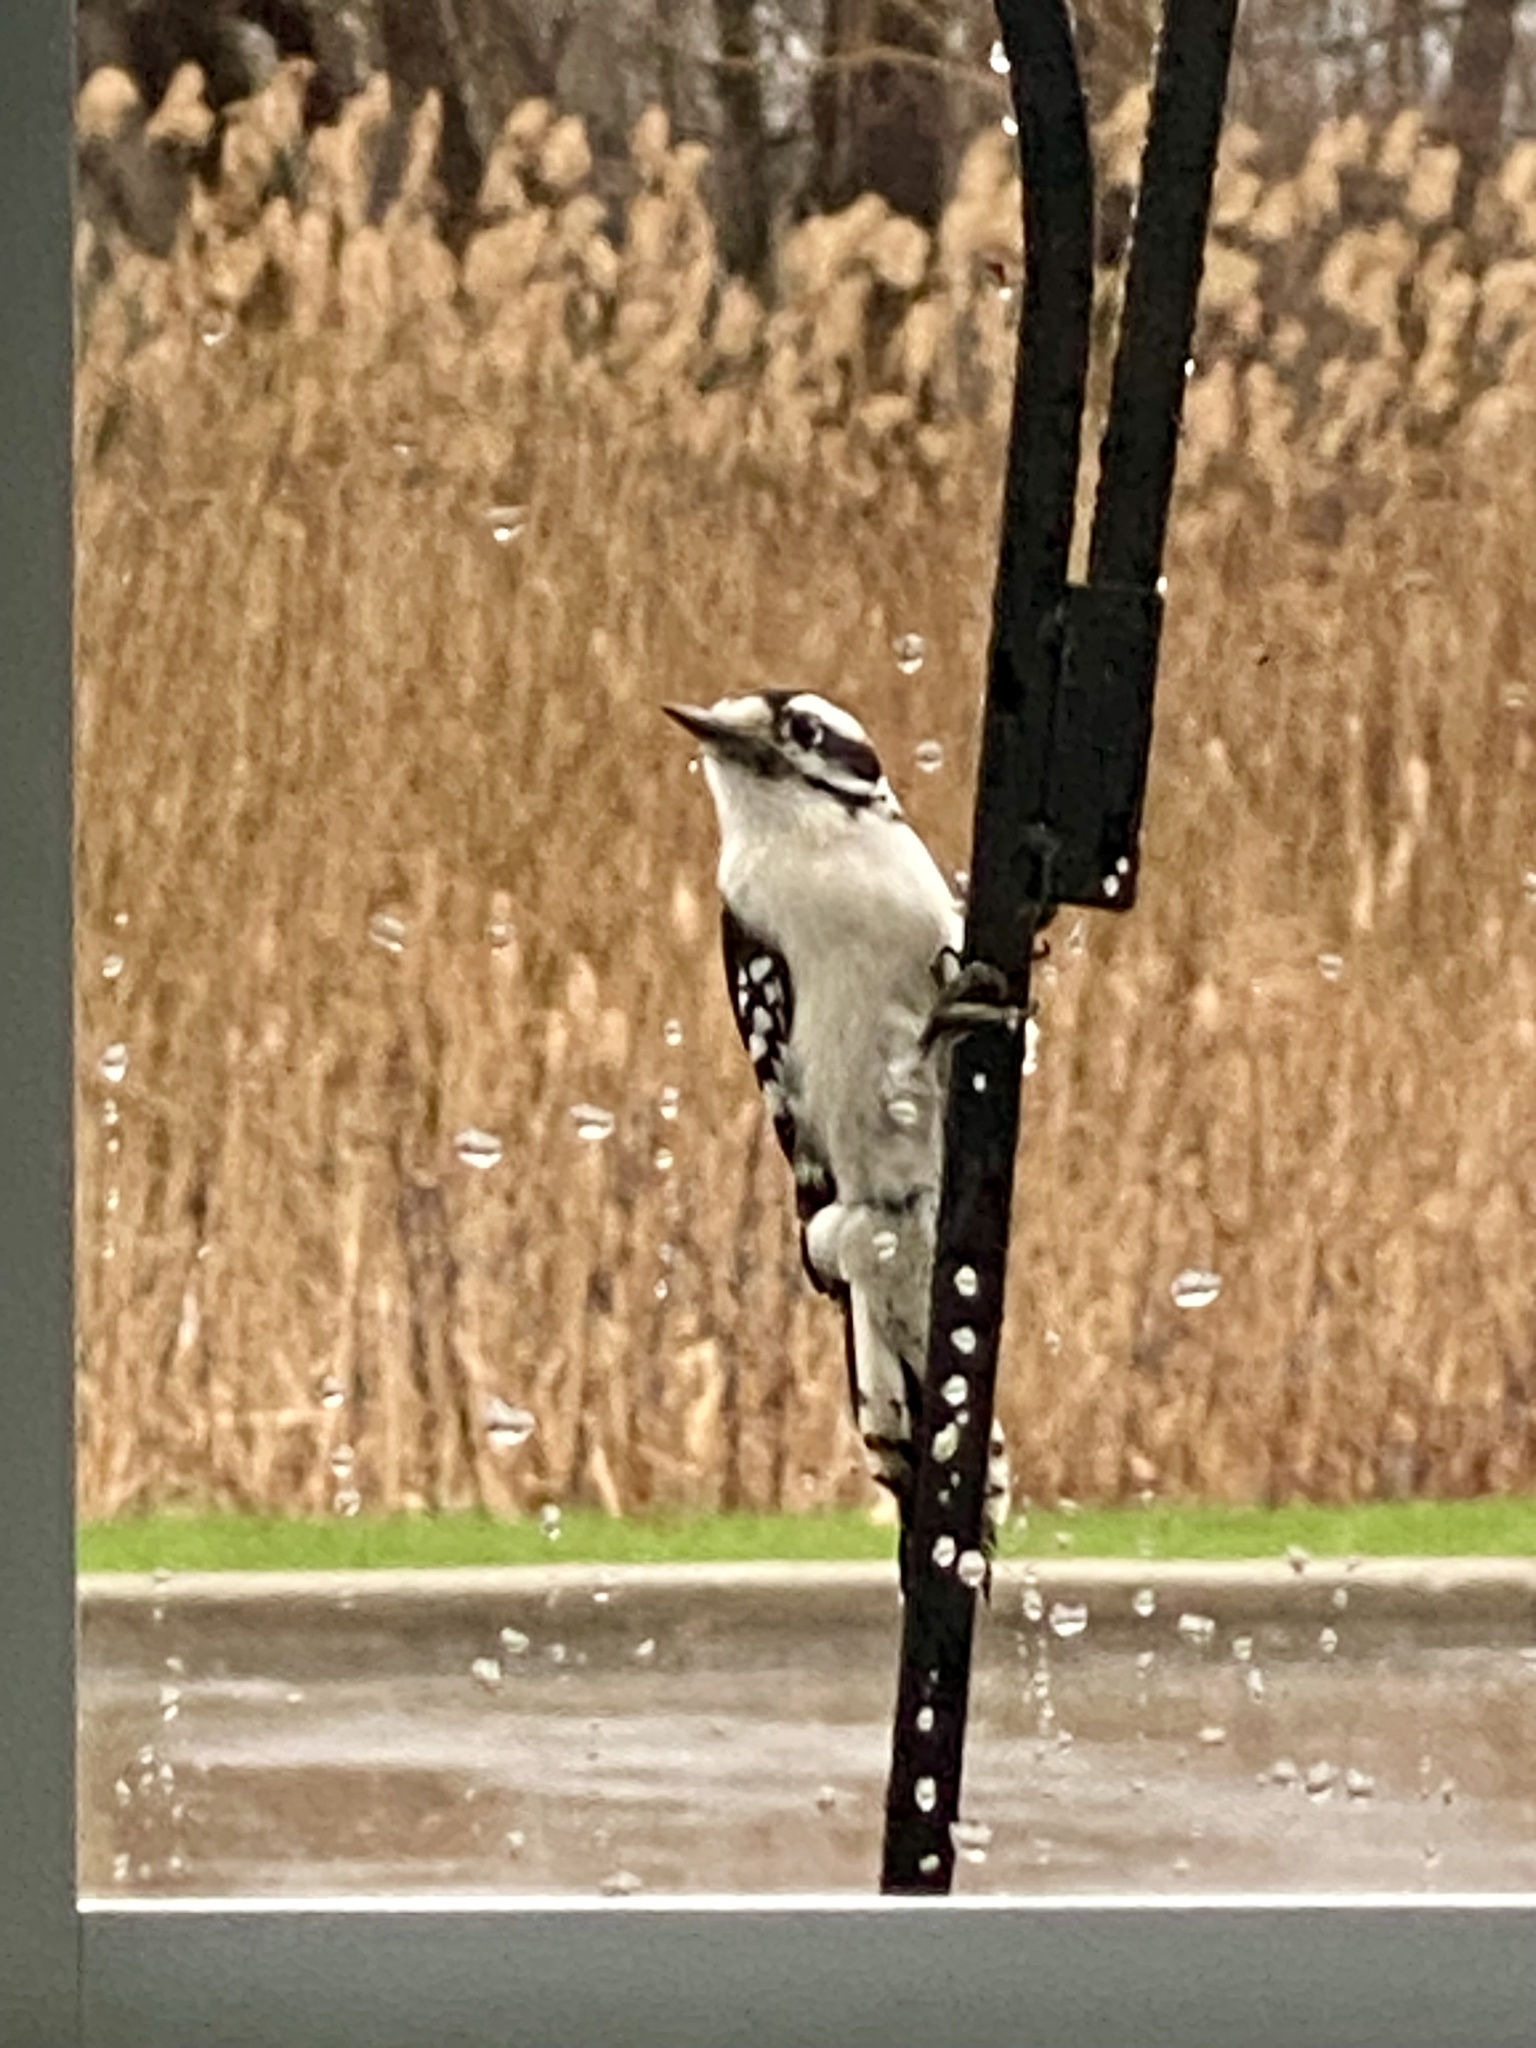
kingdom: Animalia
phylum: Chordata
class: Aves
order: Piciformes
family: Picidae
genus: Dryobates
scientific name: Dryobates pubescens
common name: Downy woodpecker
